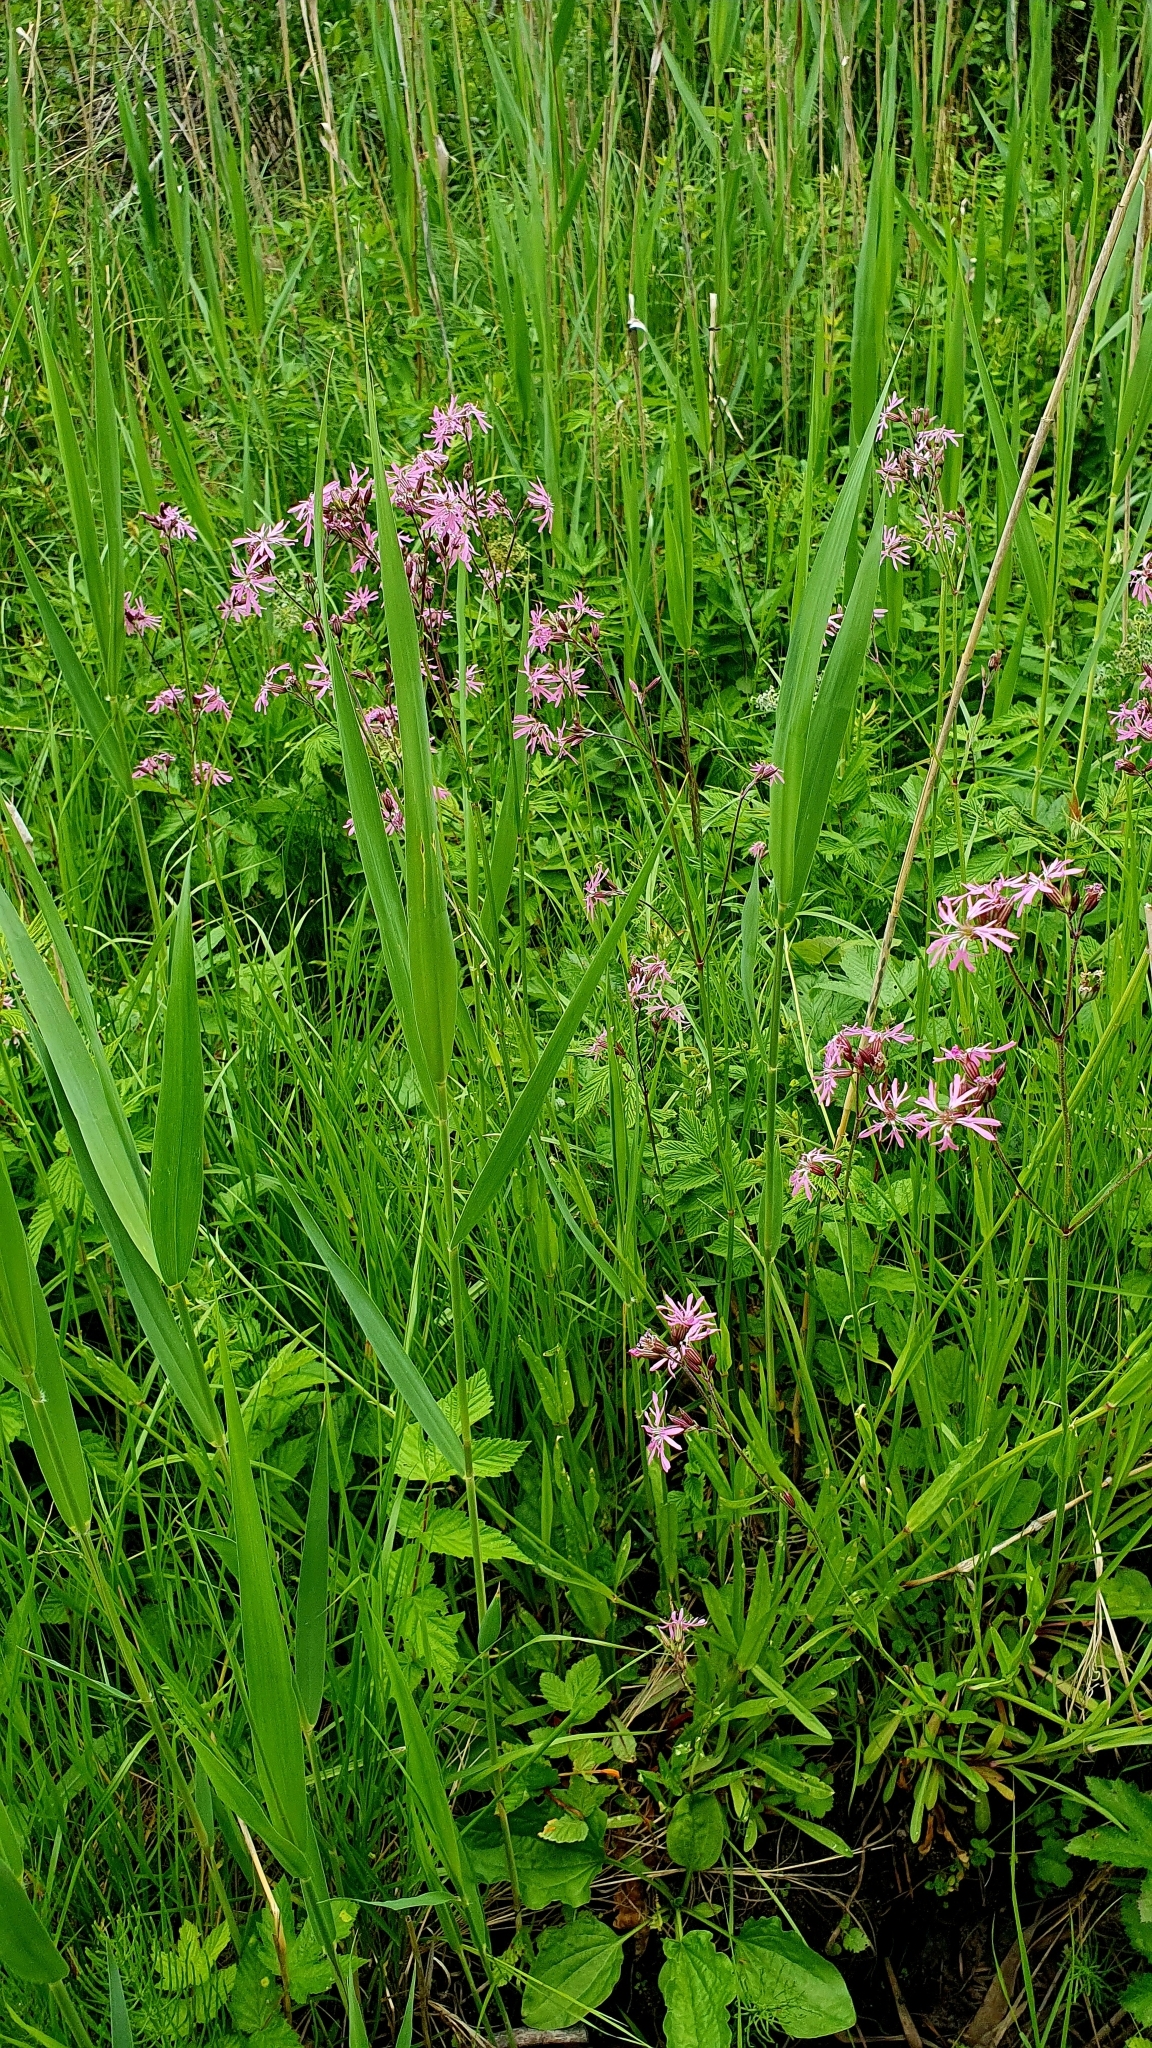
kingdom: Plantae
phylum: Tracheophyta
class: Magnoliopsida
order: Caryophyllales
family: Caryophyllaceae
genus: Silene
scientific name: Silene flos-cuculi
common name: Ragged-robin
